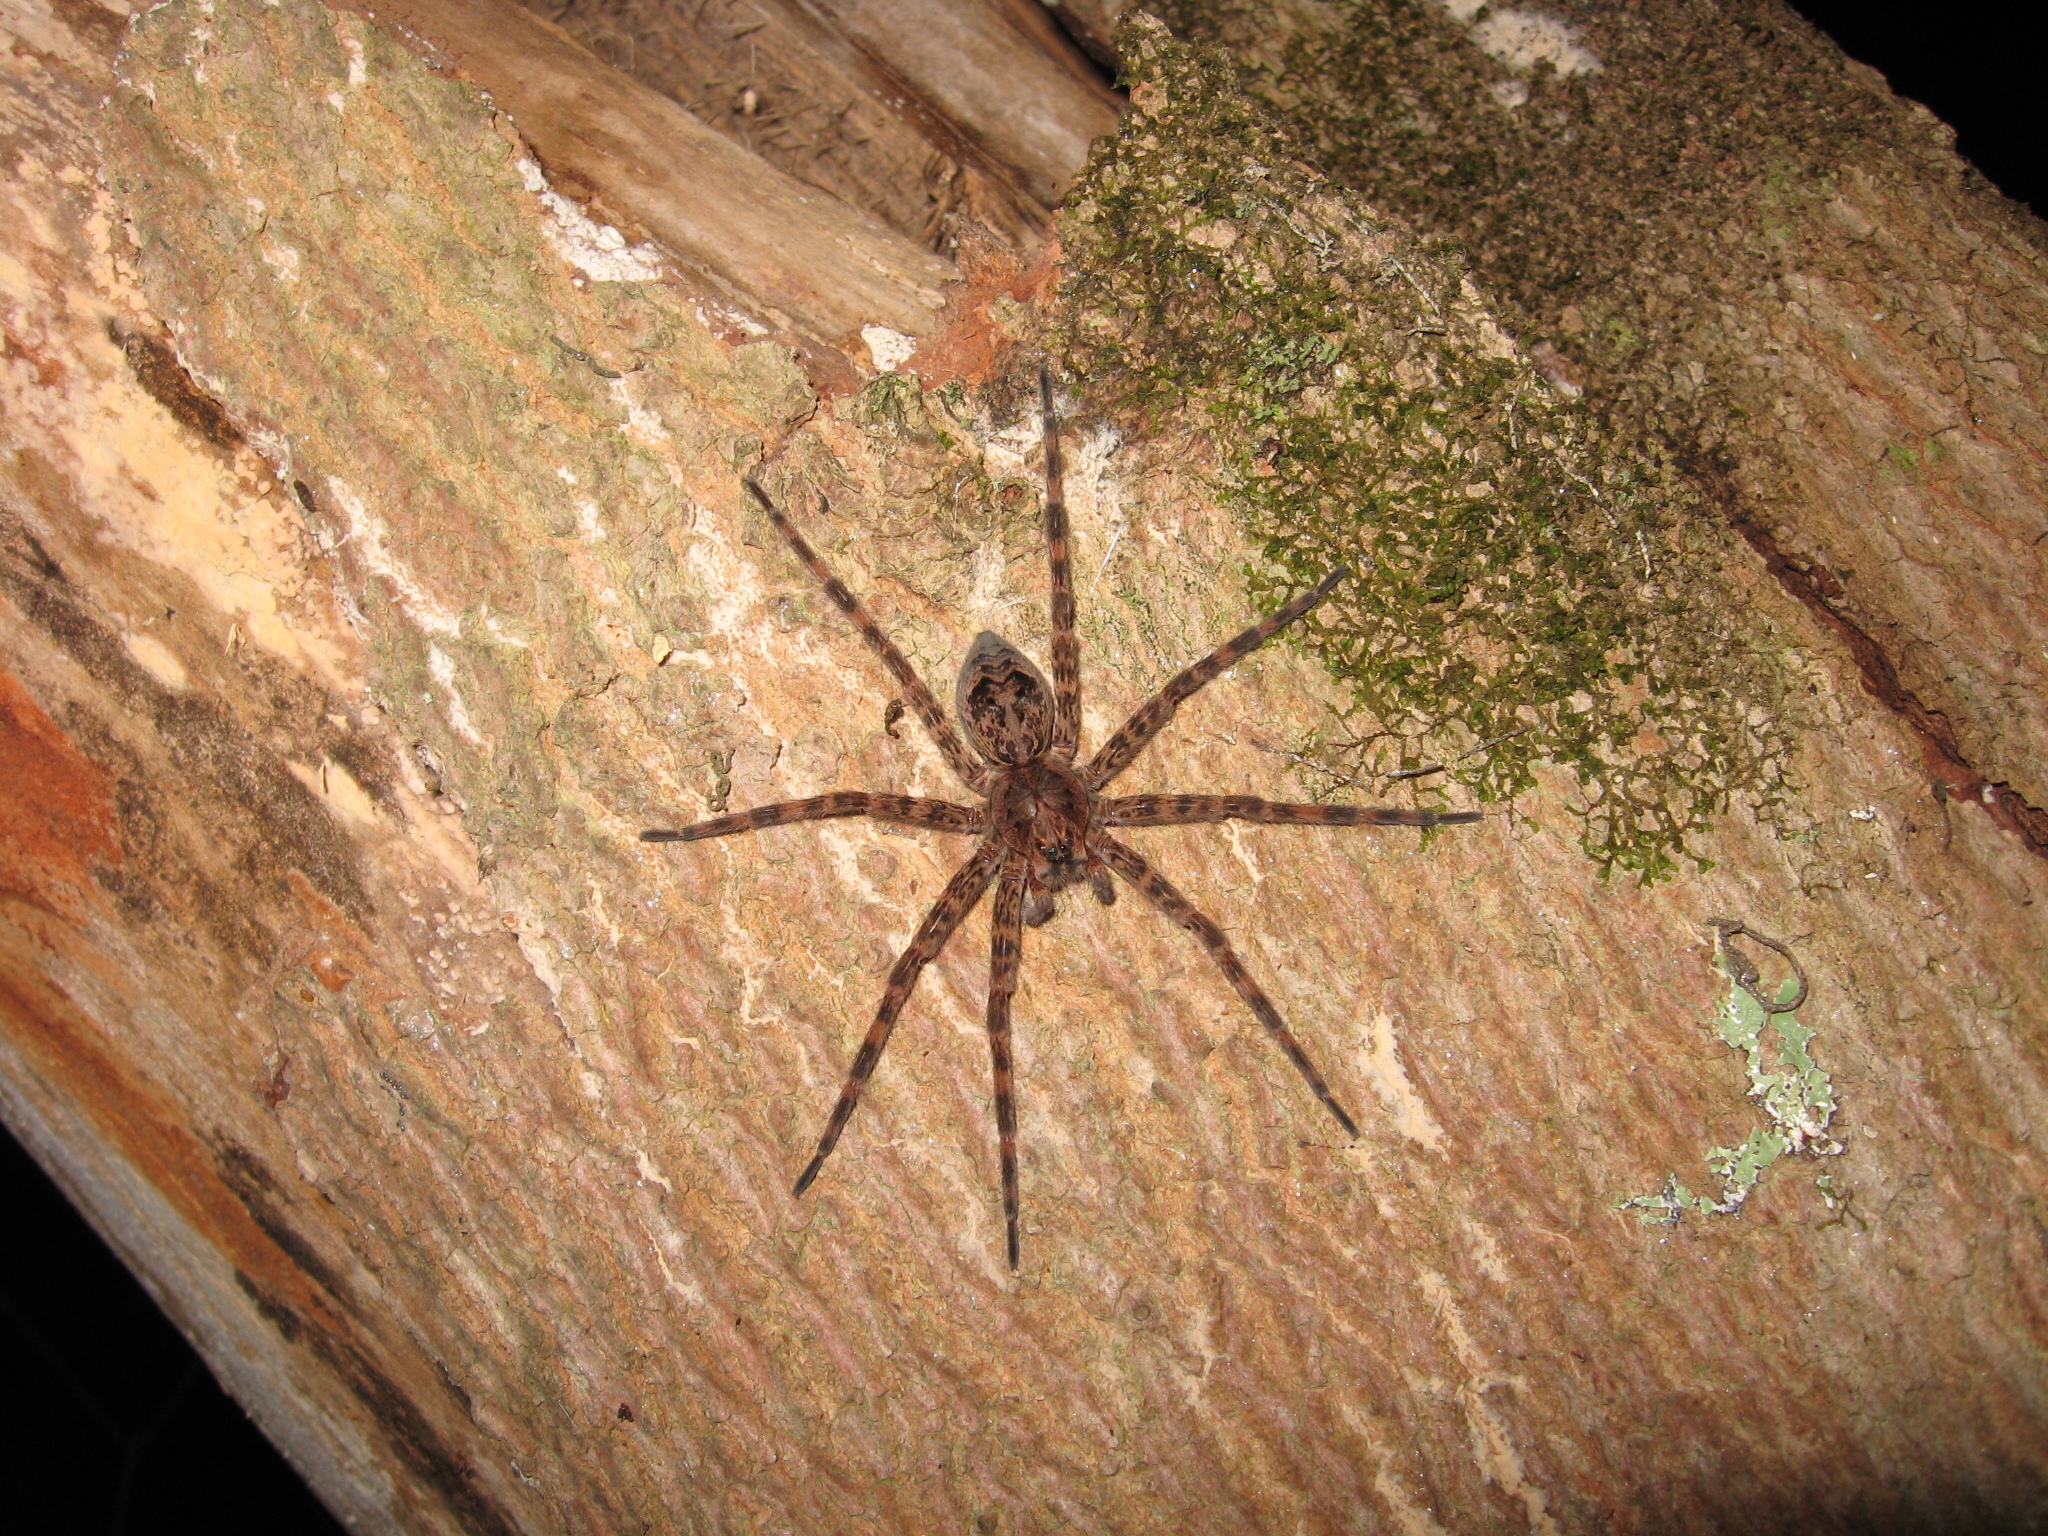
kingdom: Animalia
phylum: Arthropoda
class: Arachnida
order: Araneae
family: Pisauridae
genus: Dolomedes
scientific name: Dolomedes tenebrosus
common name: Dark fishing spider
